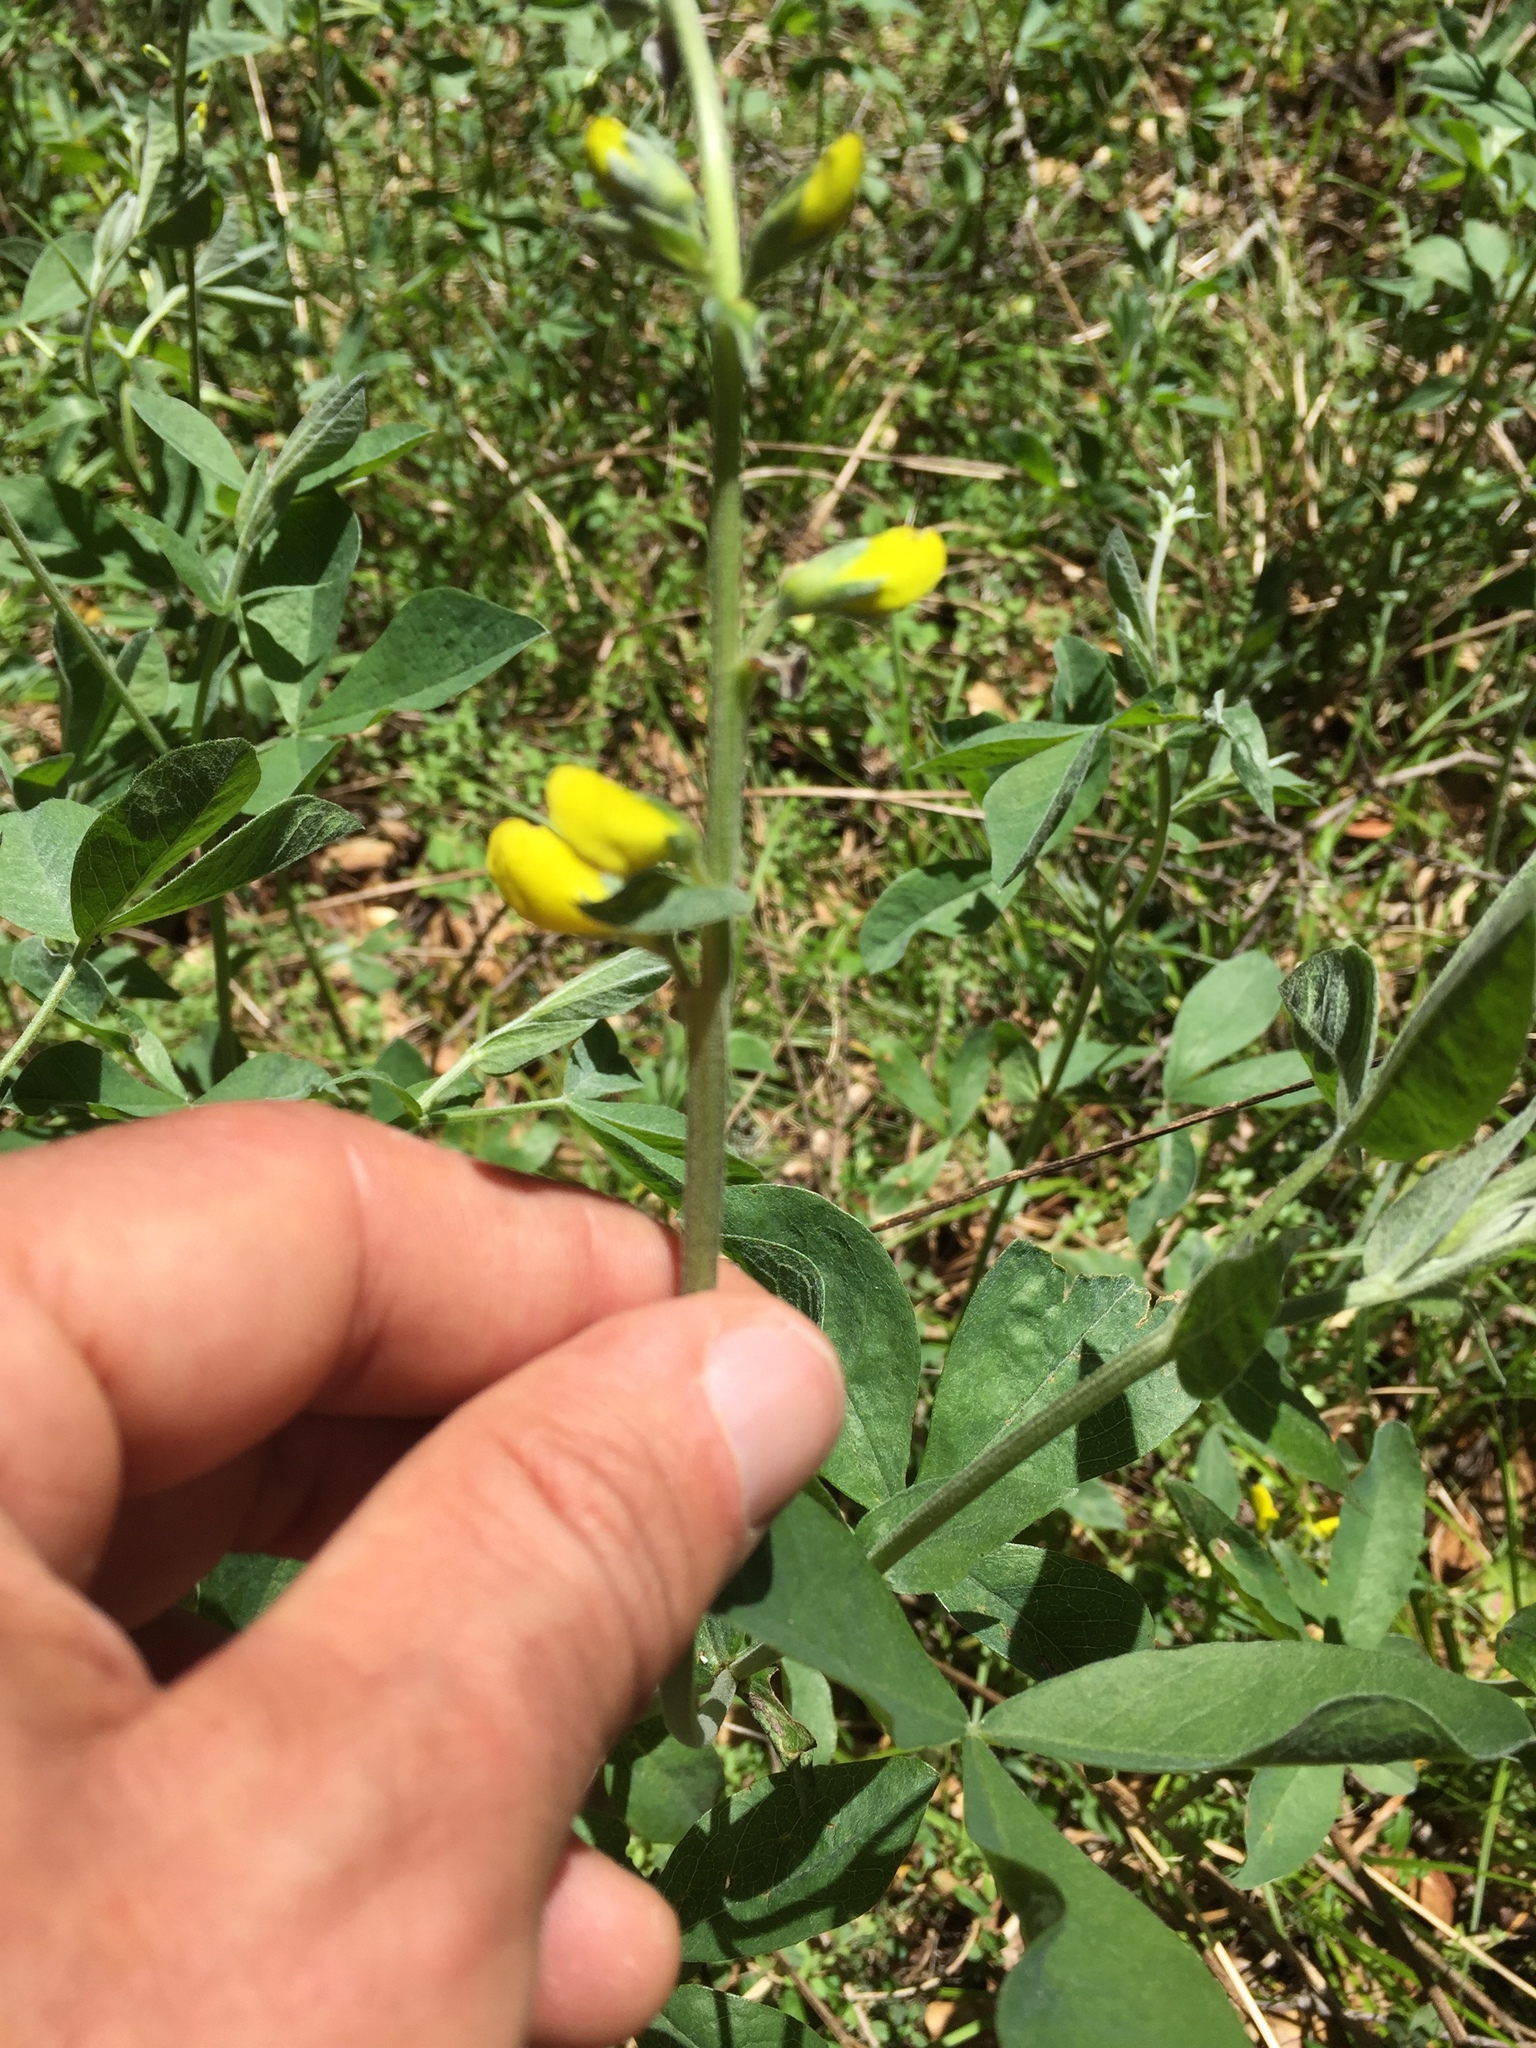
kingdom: Plantae
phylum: Tracheophyta
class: Magnoliopsida
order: Fabales
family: Fabaceae
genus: Thermopsis
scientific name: Thermopsis californica
